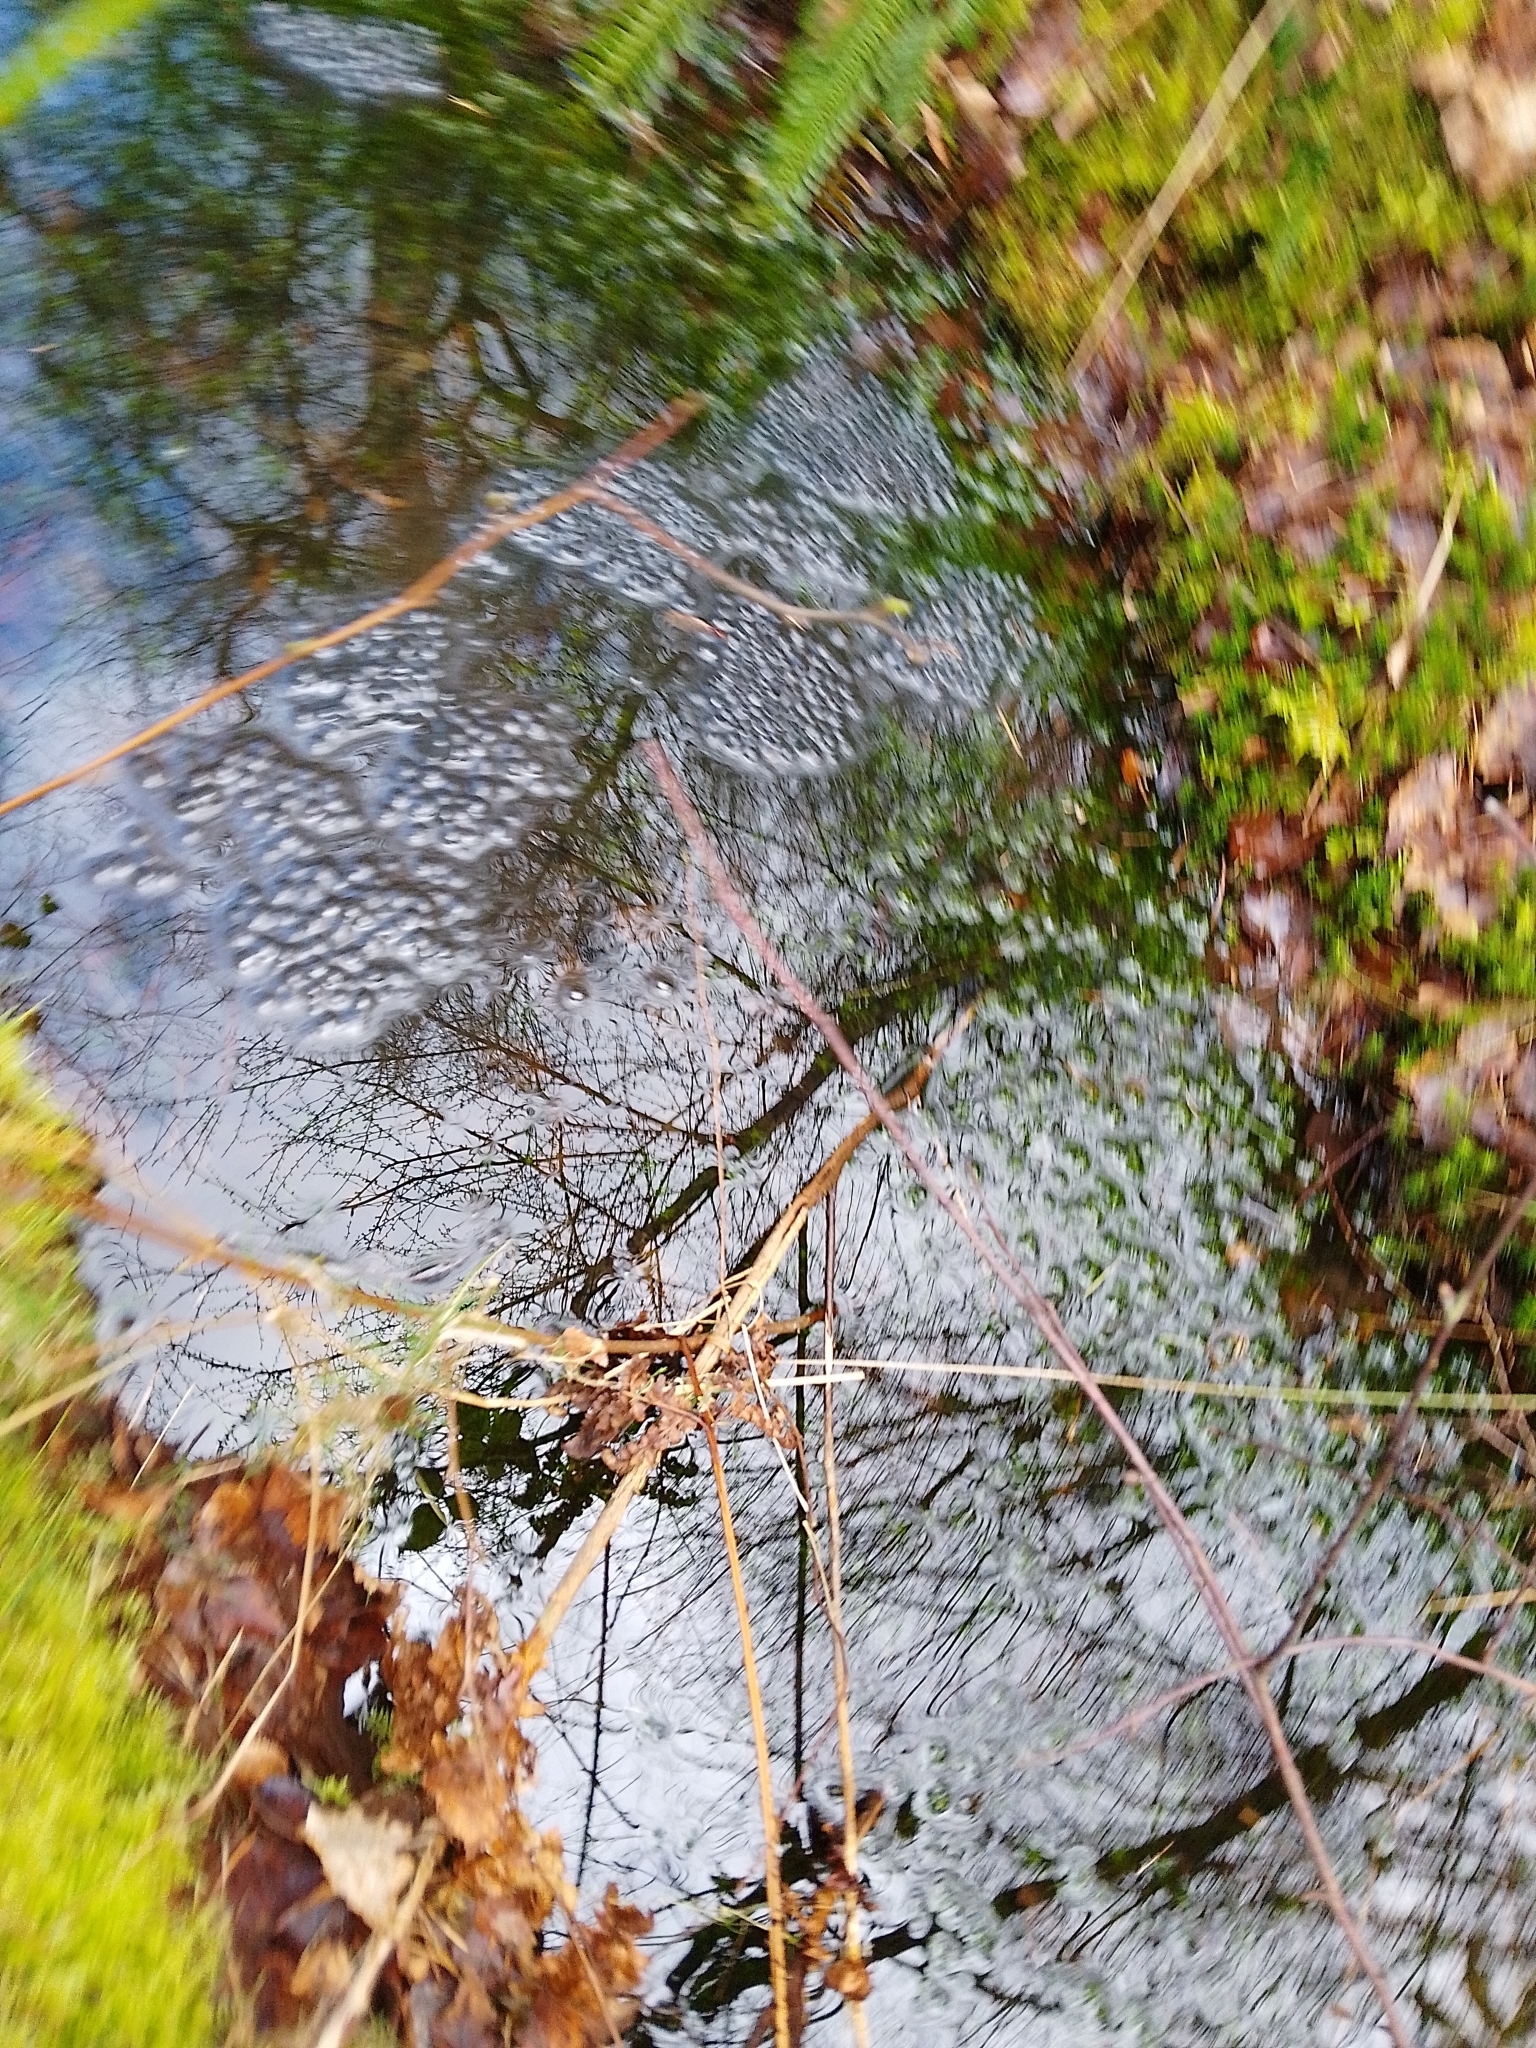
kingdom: Animalia
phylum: Chordata
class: Amphibia
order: Anura
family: Ranidae
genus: Rana
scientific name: Rana temporaria
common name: Common frog
